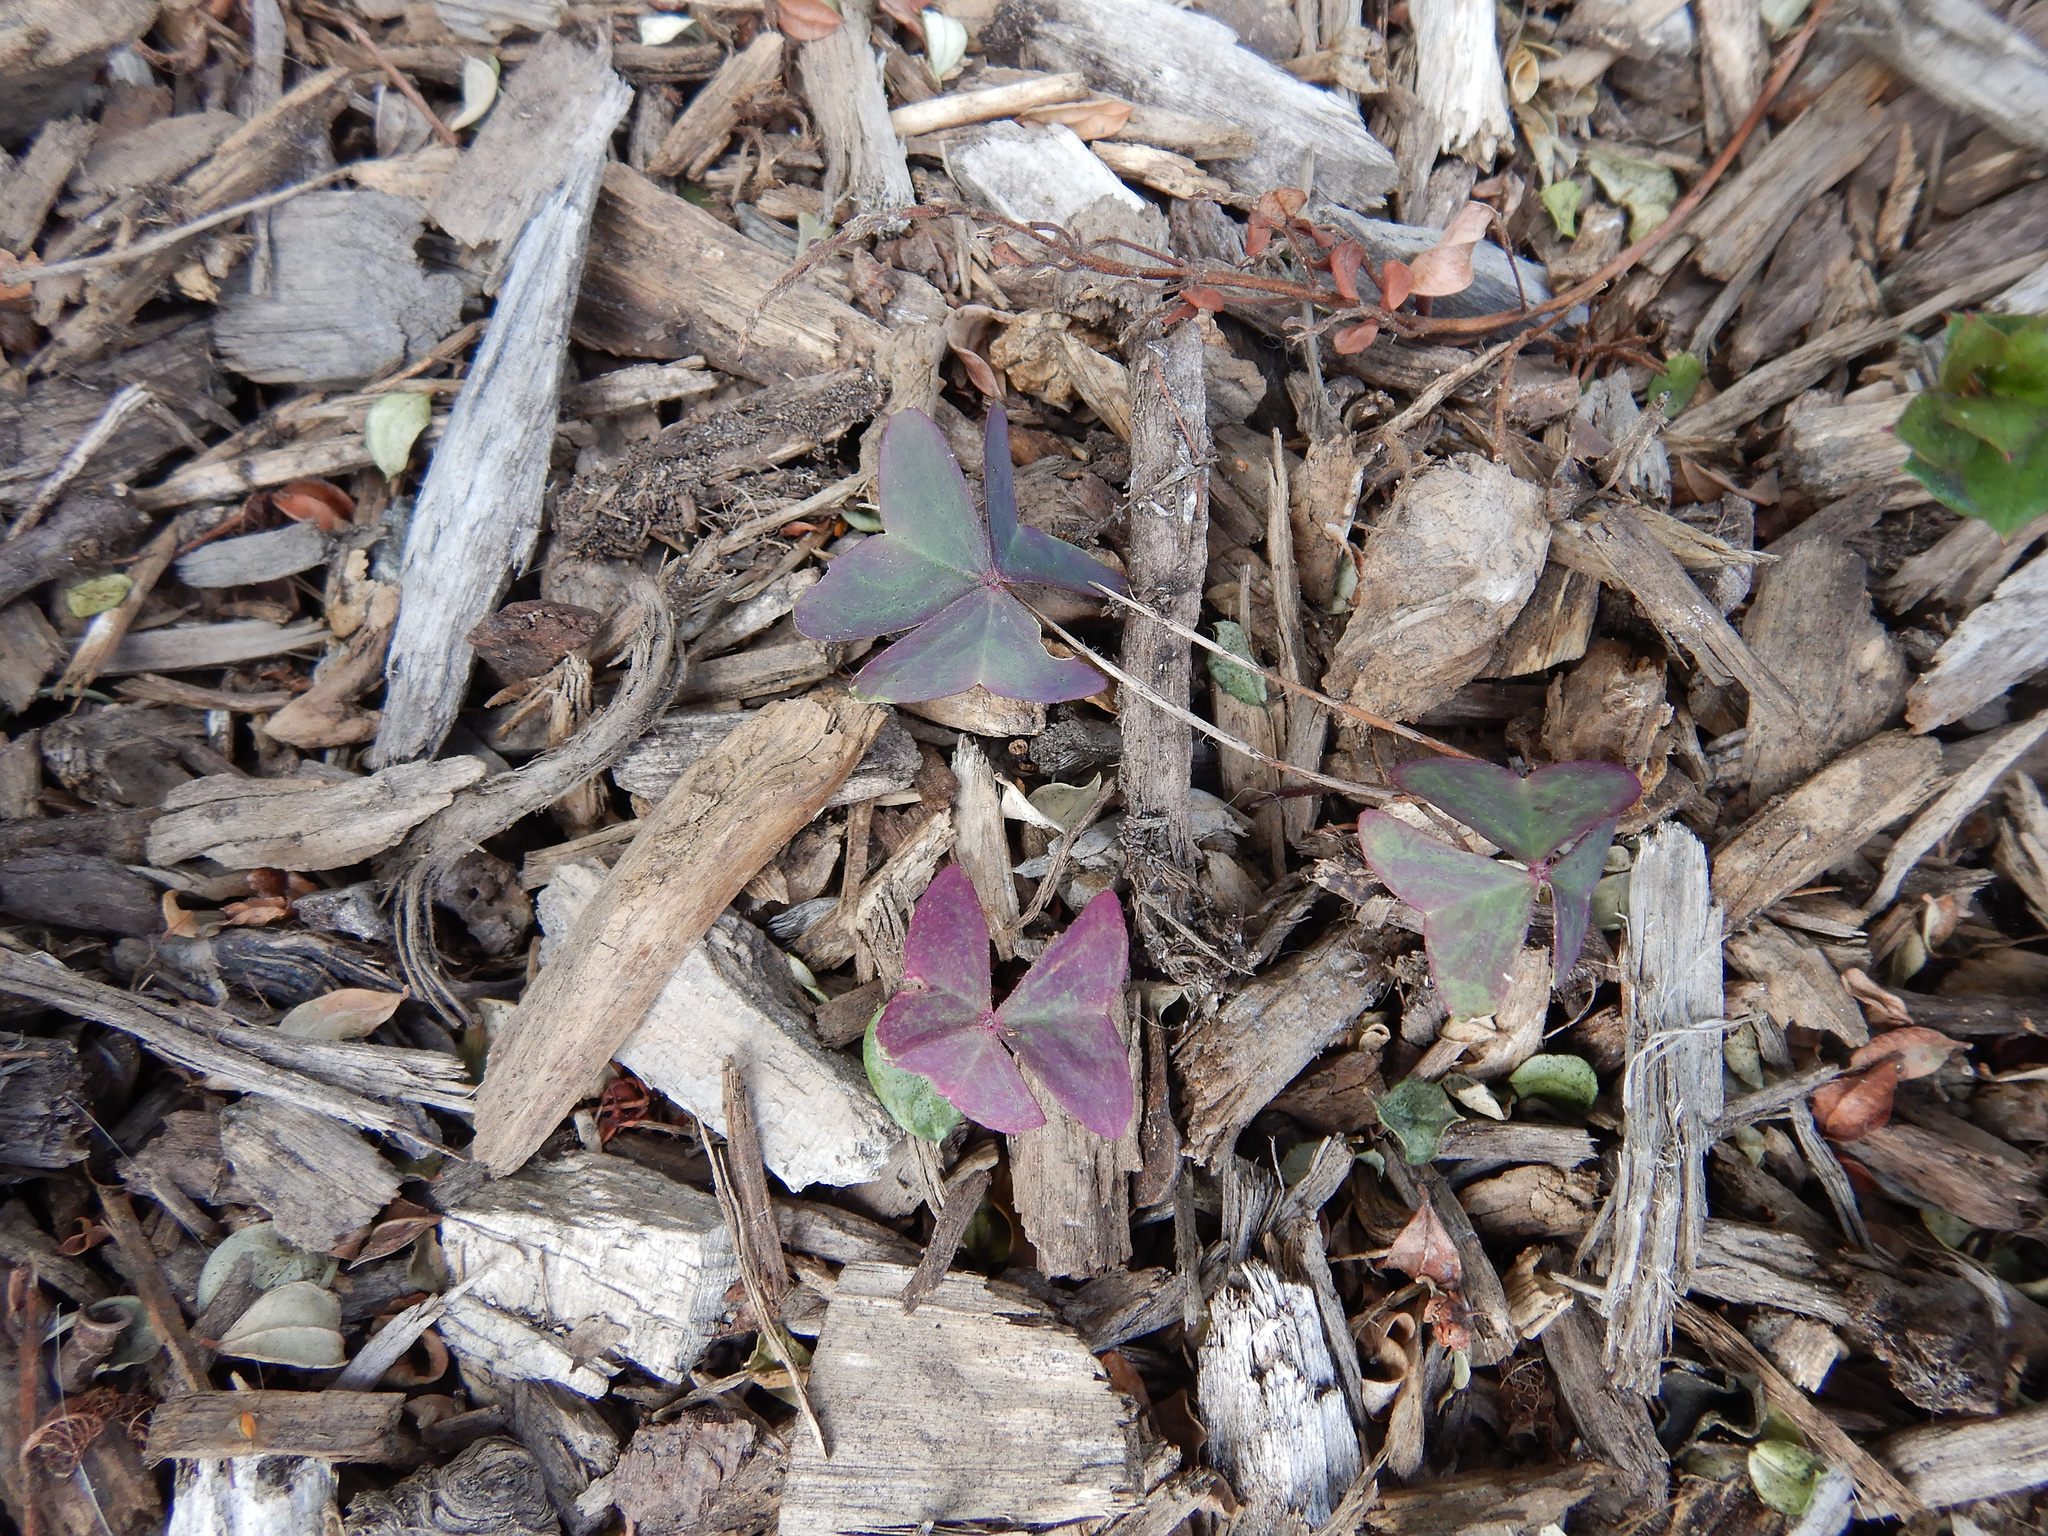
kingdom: Plantae
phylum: Tracheophyta
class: Magnoliopsida
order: Oxalidales
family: Oxalidaceae
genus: Oxalis
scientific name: Oxalis latifolia
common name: Garden pink-sorrel
